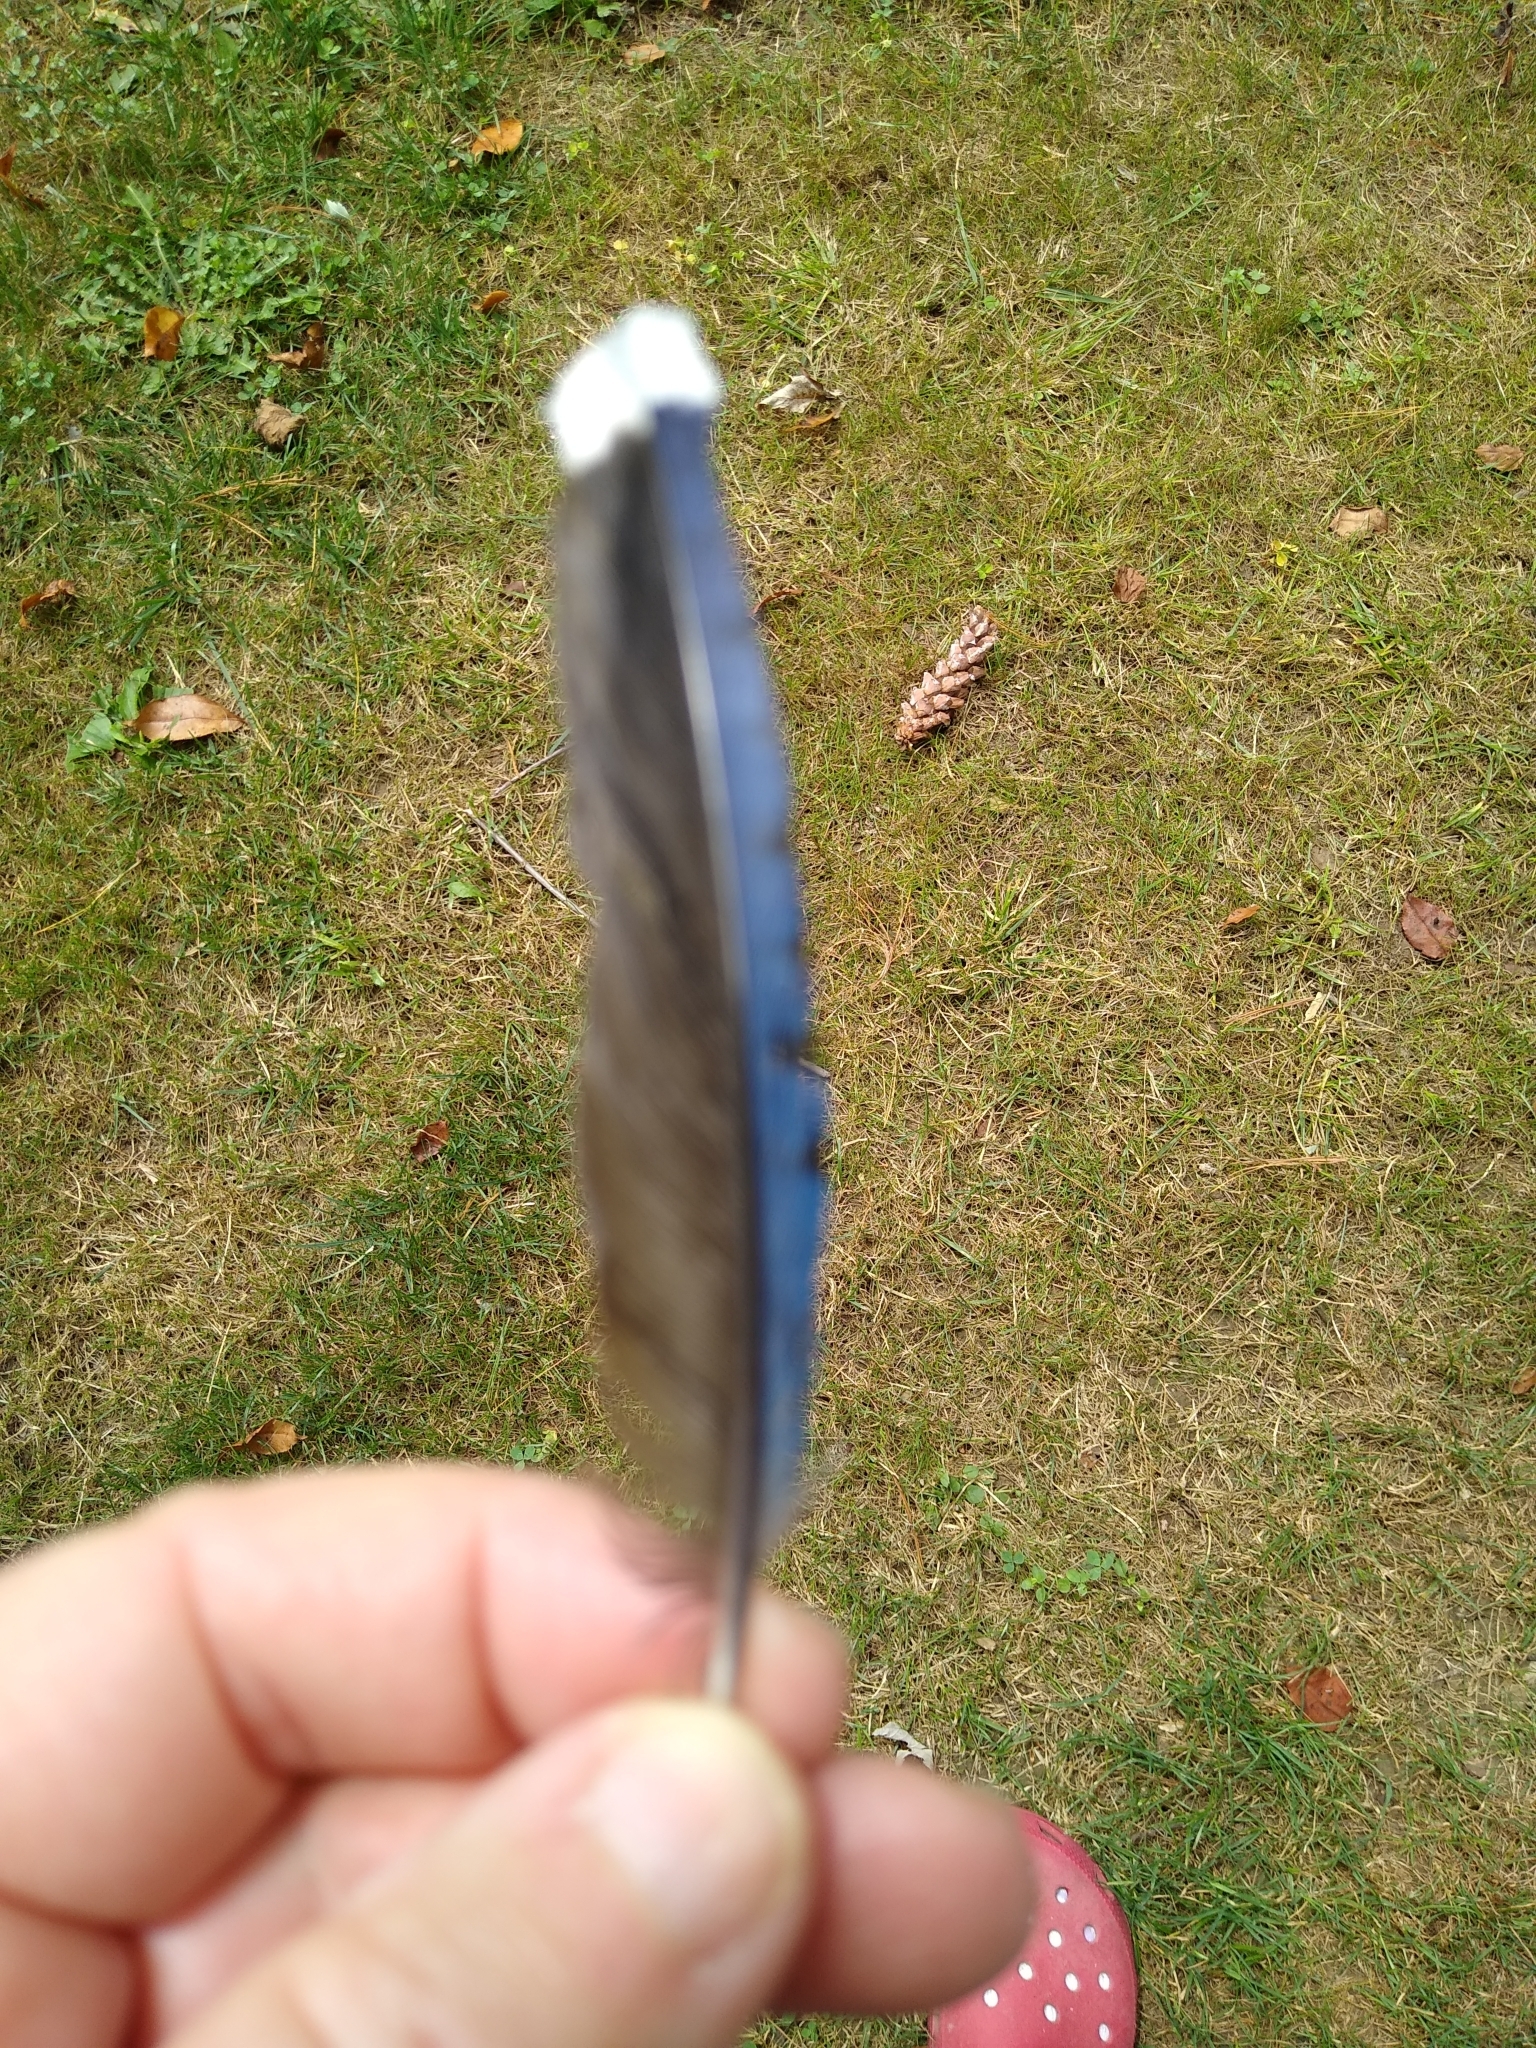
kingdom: Animalia
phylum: Chordata
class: Aves
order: Passeriformes
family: Corvidae
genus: Cyanocitta
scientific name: Cyanocitta cristata
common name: Blue jay
